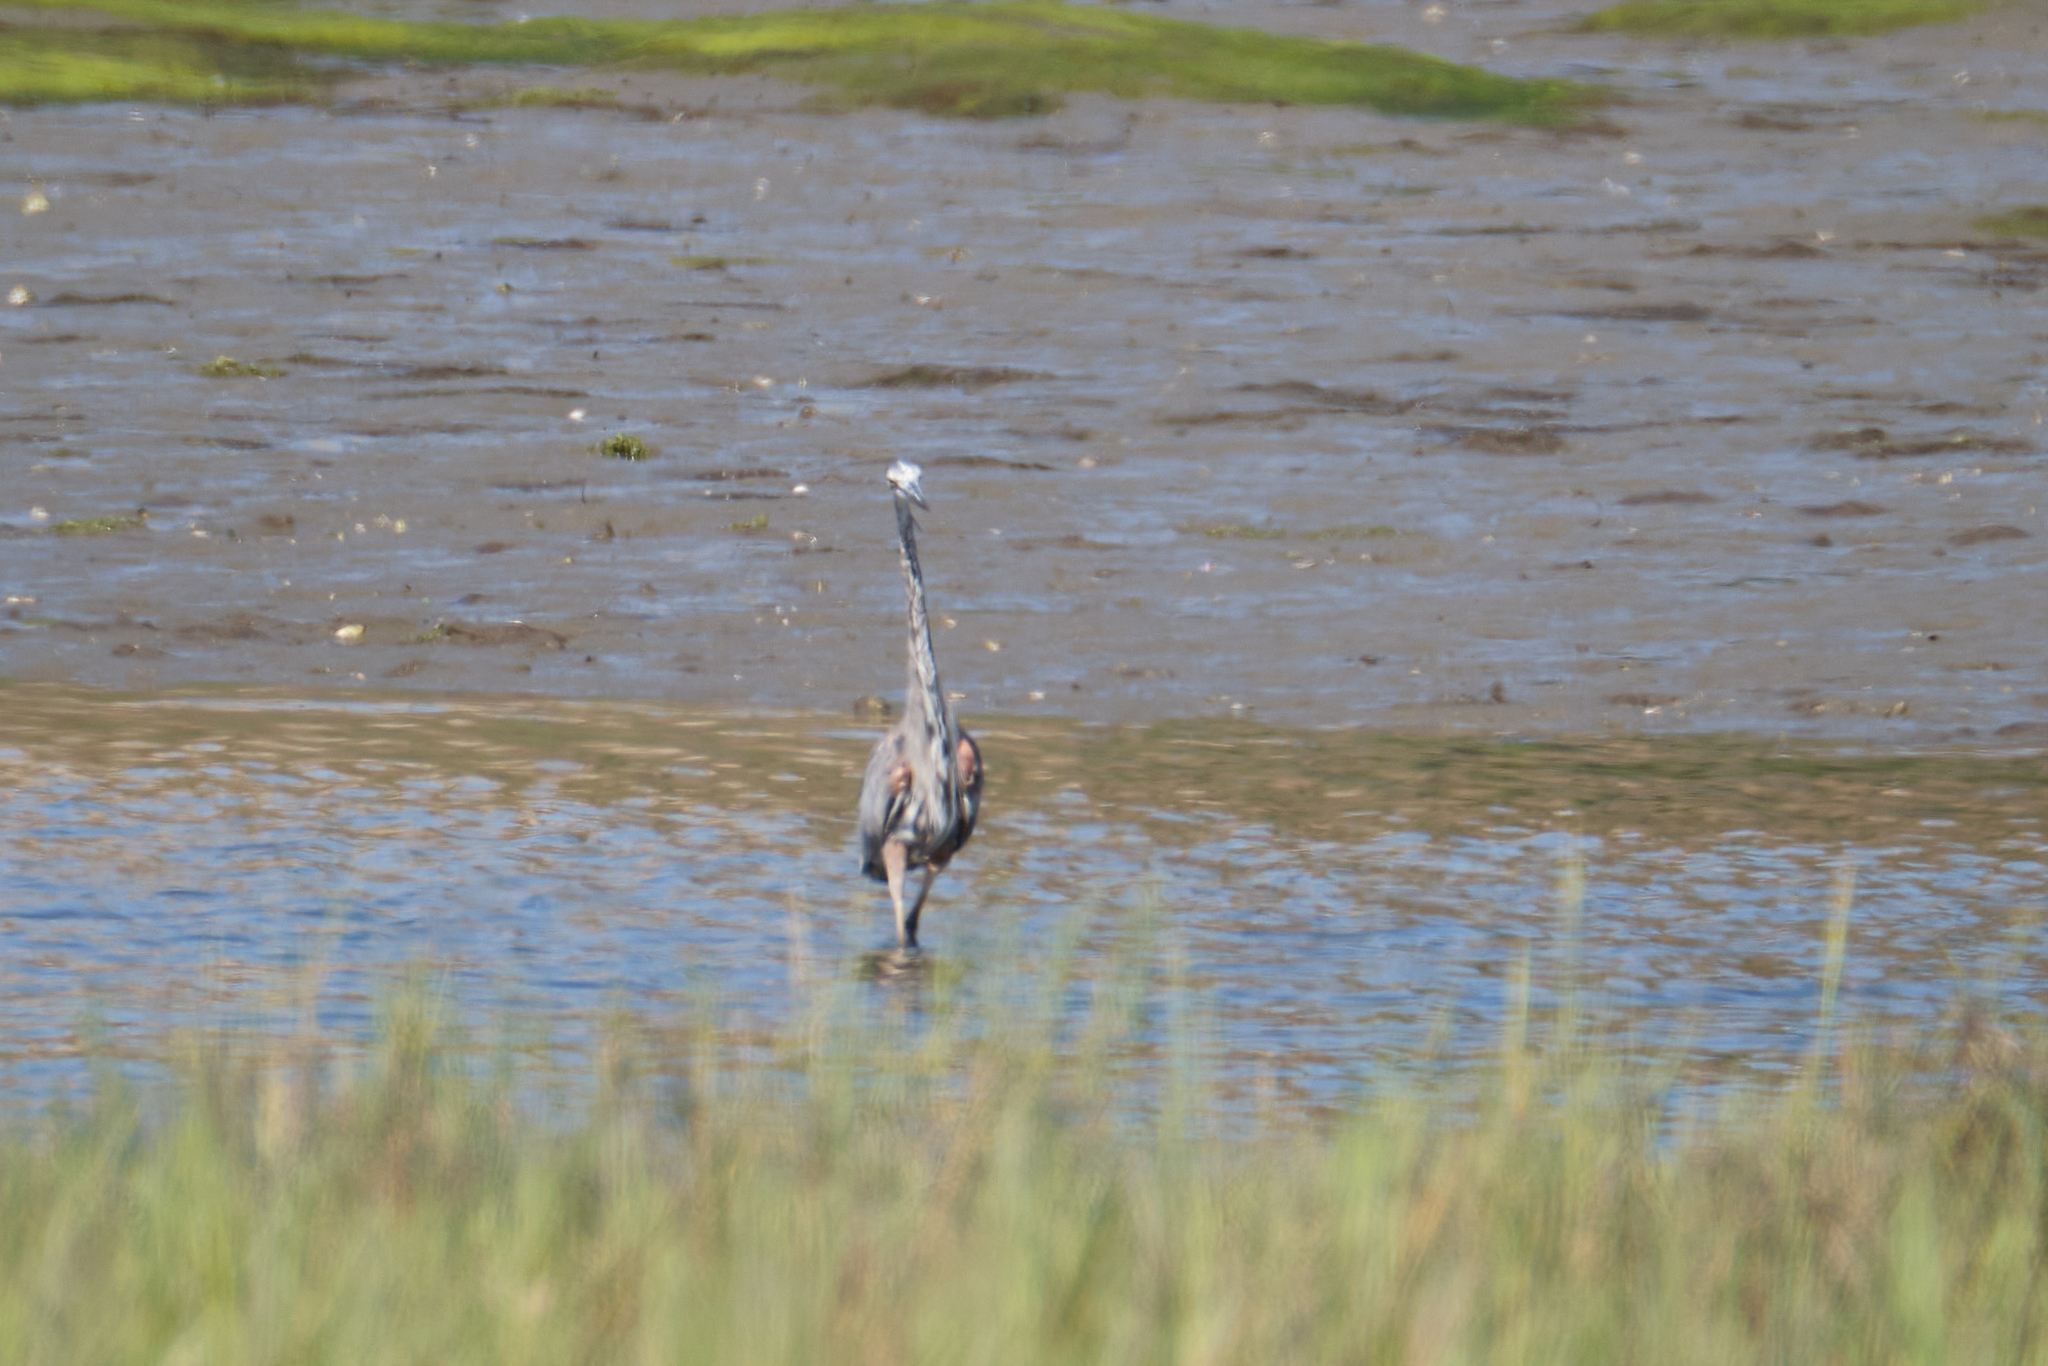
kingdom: Animalia
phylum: Chordata
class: Aves
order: Pelecaniformes
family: Ardeidae
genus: Ardea
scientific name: Ardea herodias
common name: Great blue heron
